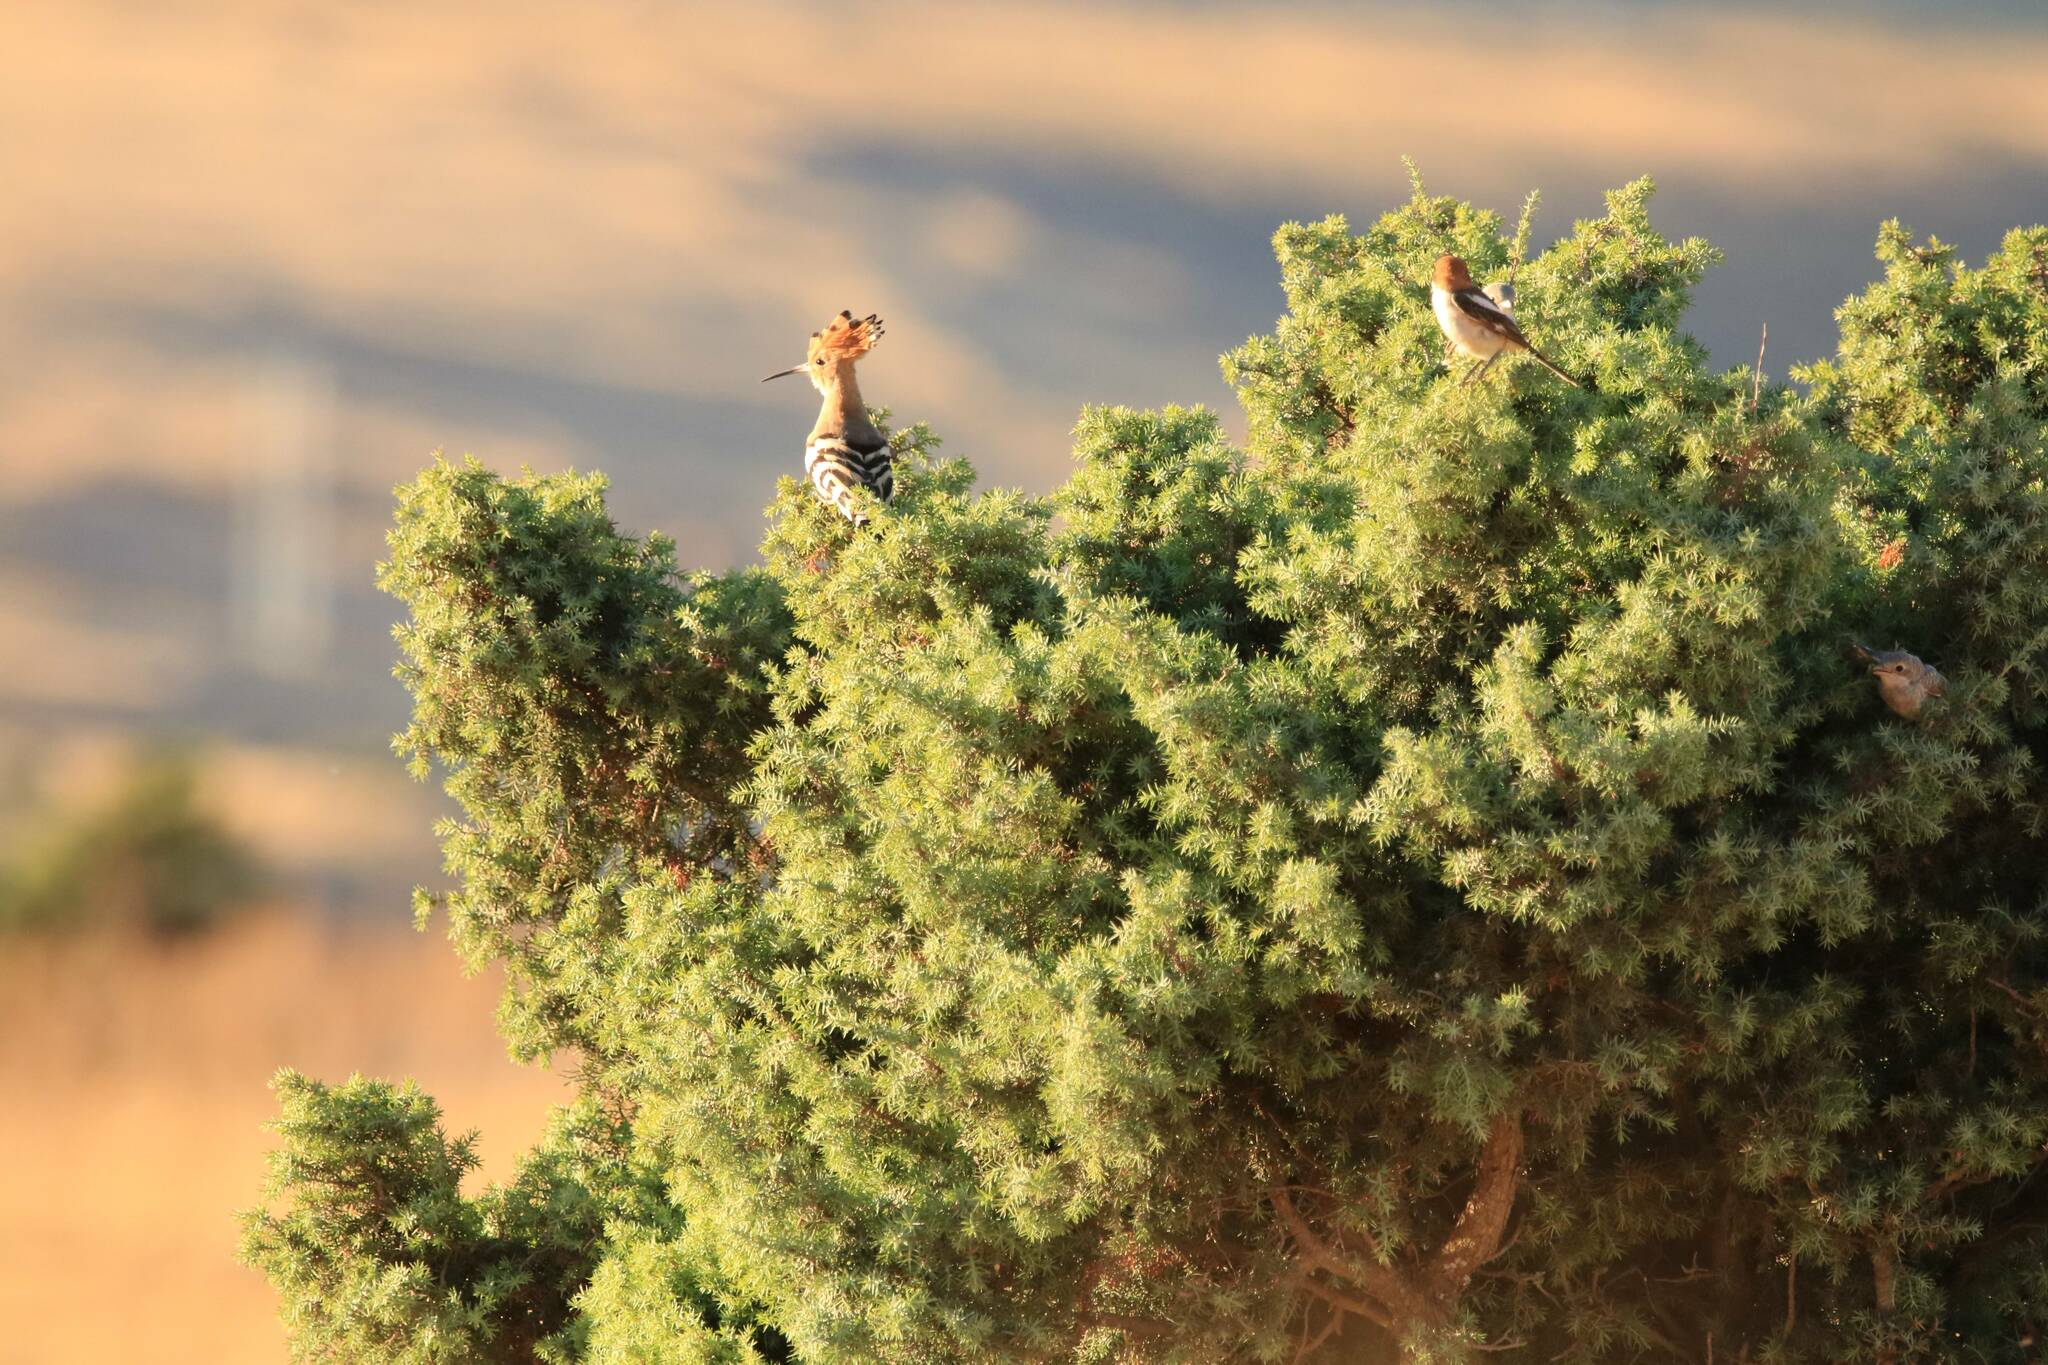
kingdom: Animalia
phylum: Chordata
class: Aves
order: Bucerotiformes
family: Upupidae
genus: Upupa
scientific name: Upupa epops
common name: Eurasian hoopoe
